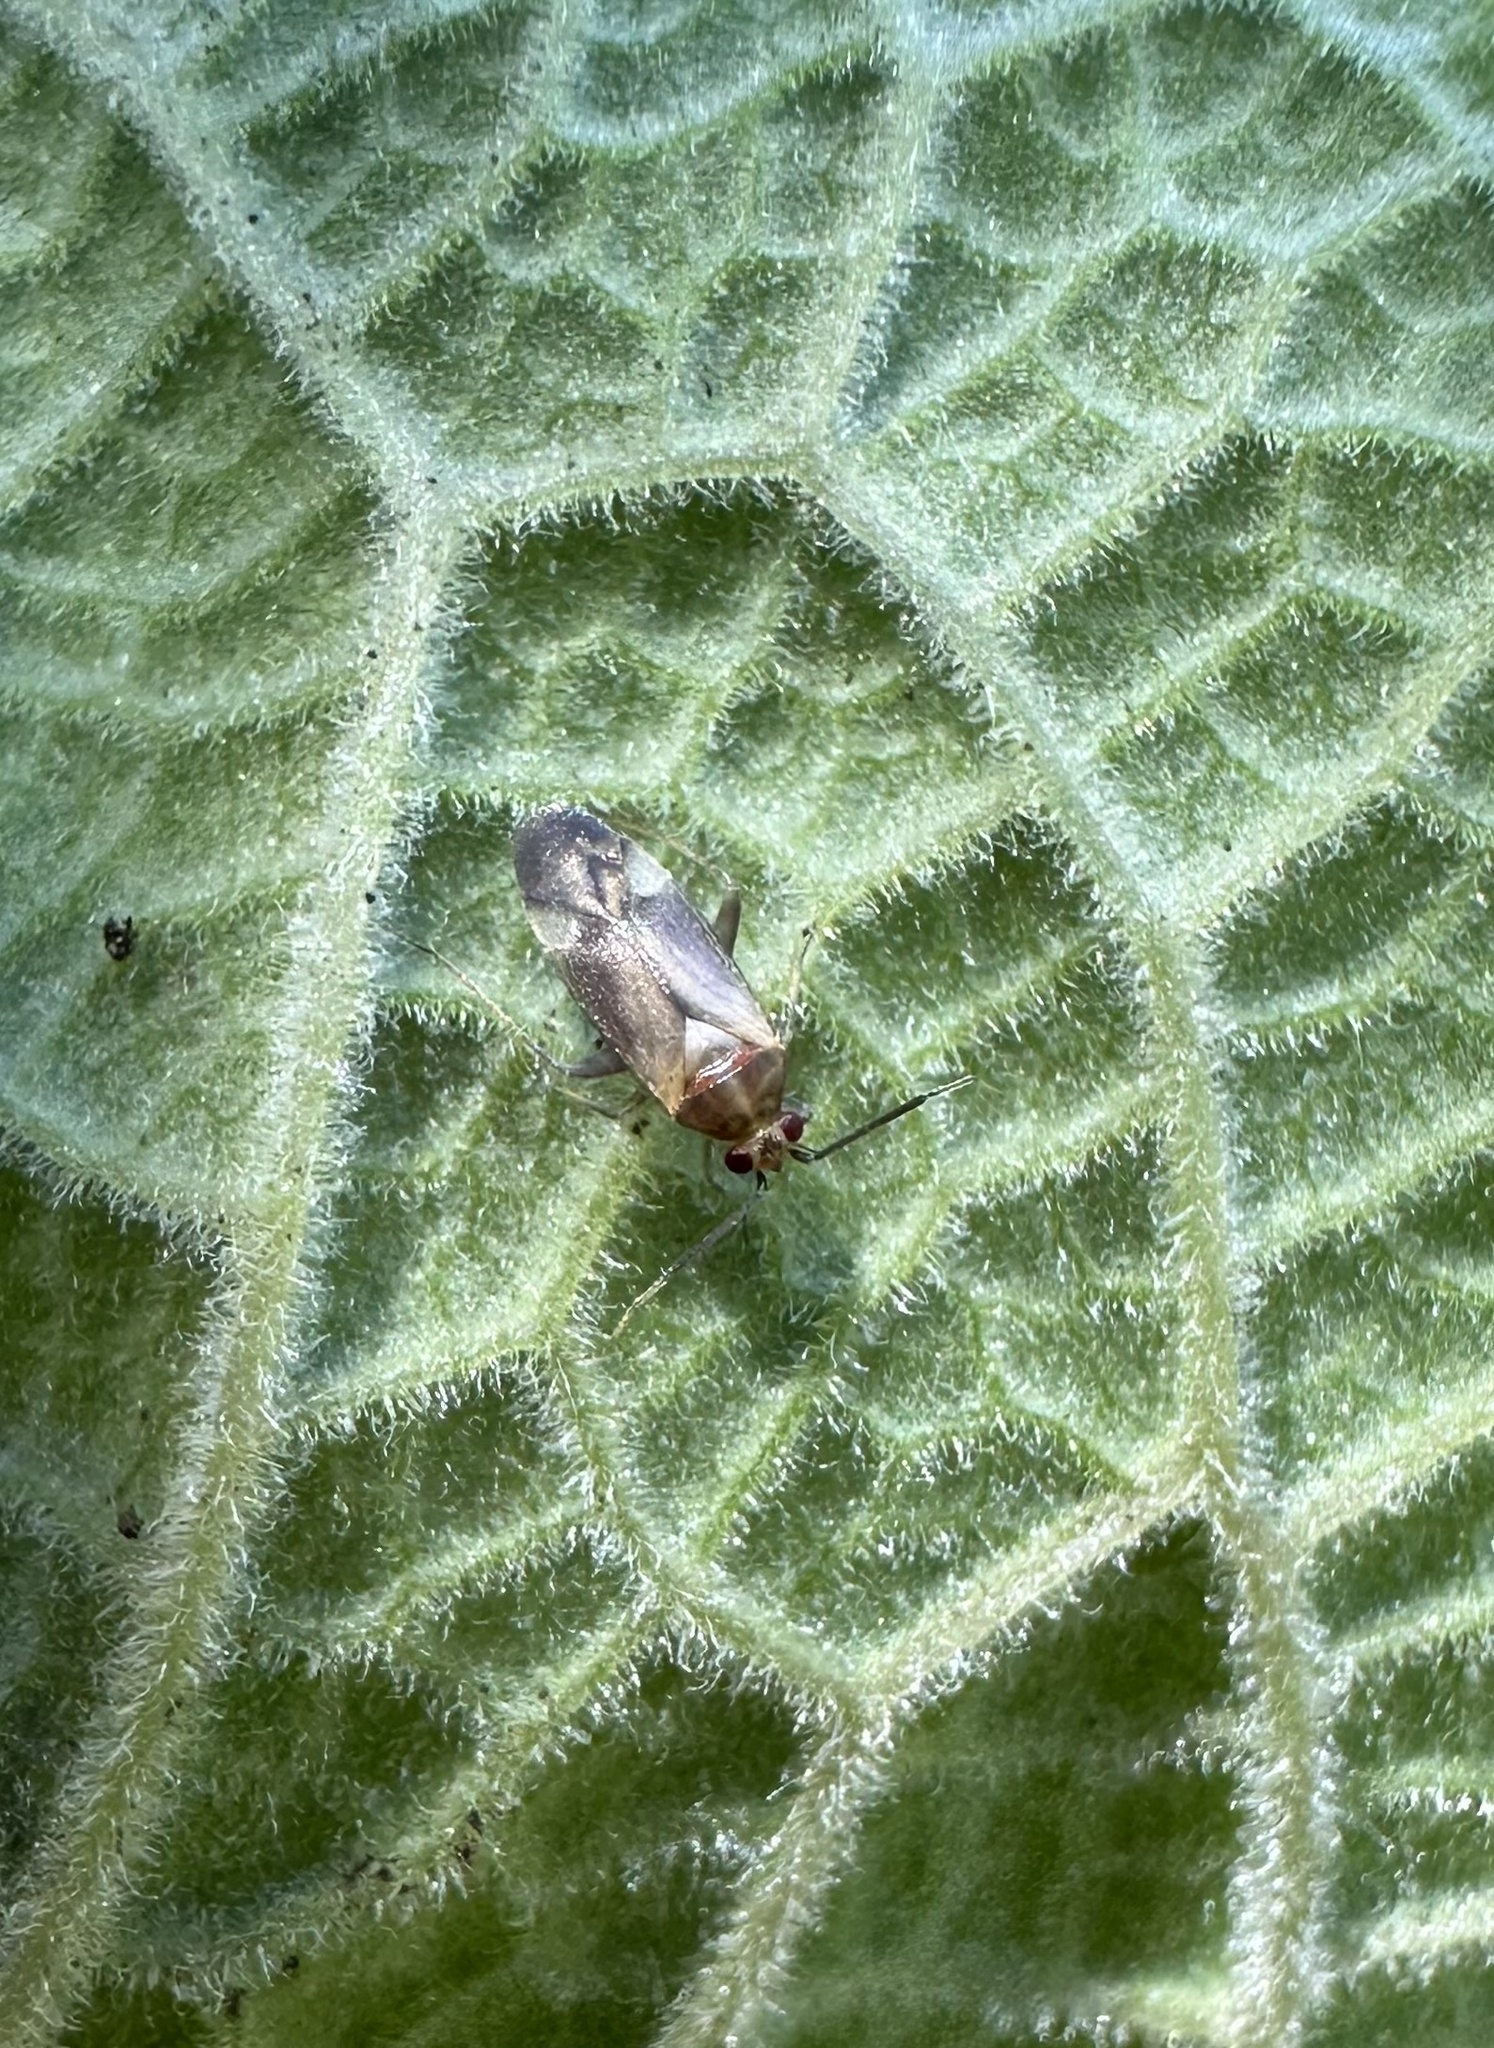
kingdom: Animalia
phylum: Arthropoda
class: Insecta
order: Hemiptera
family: Miridae
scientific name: Miridae
